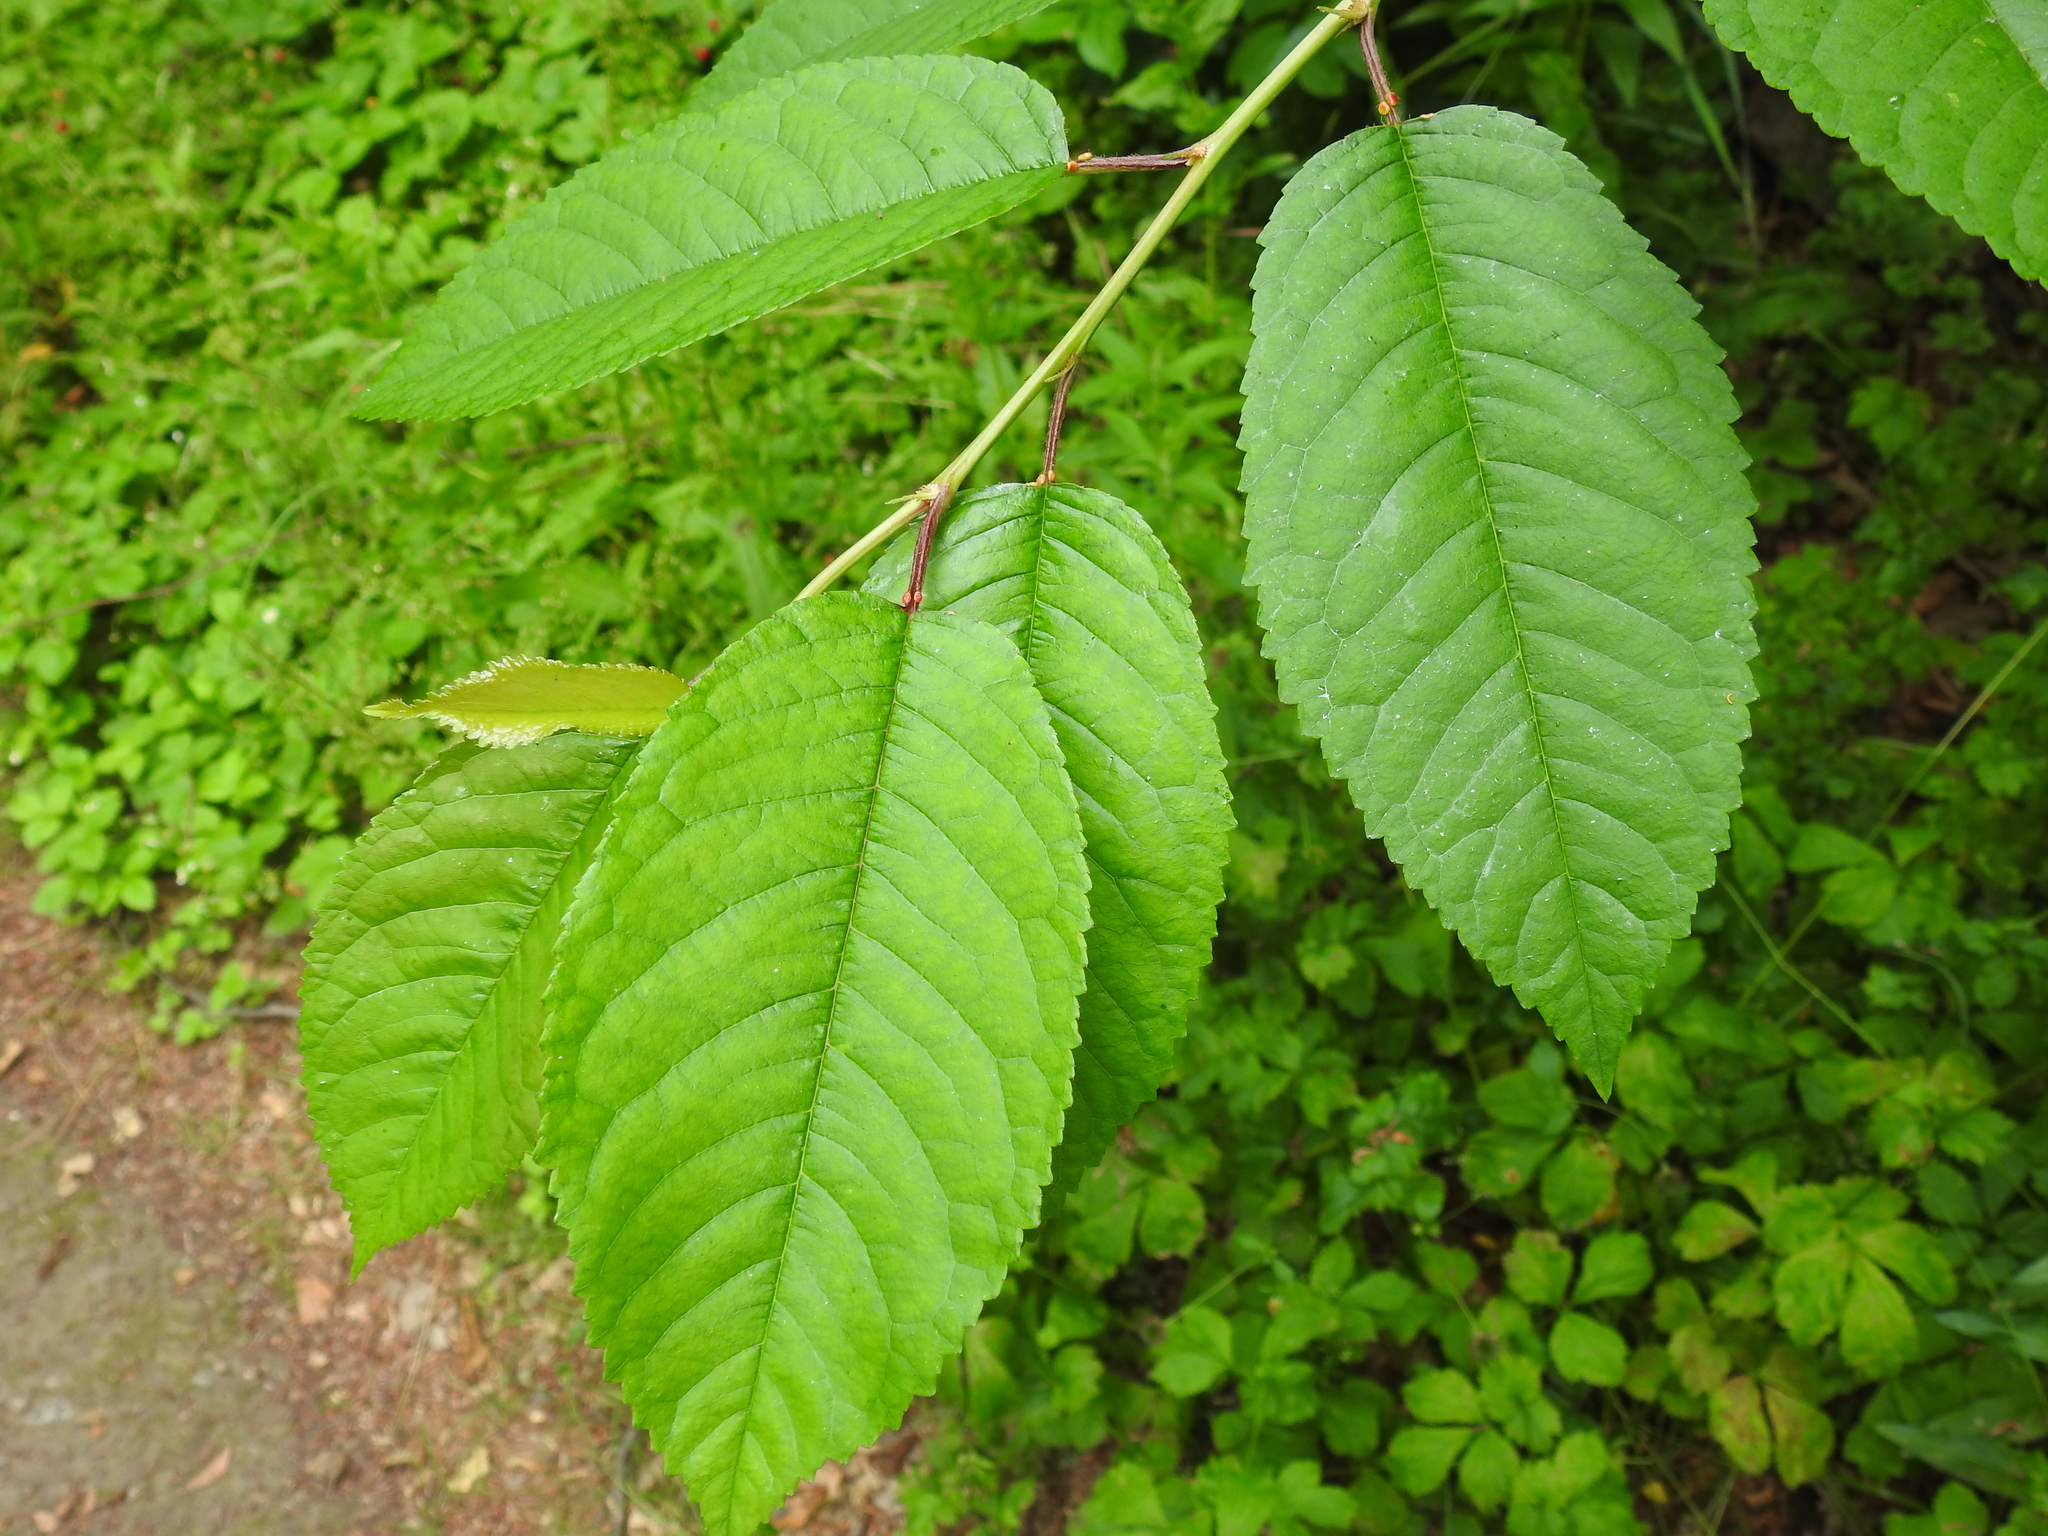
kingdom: Plantae
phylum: Tracheophyta
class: Magnoliopsida
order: Rosales
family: Rosaceae
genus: Prunus
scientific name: Prunus avium
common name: Sweet cherry
